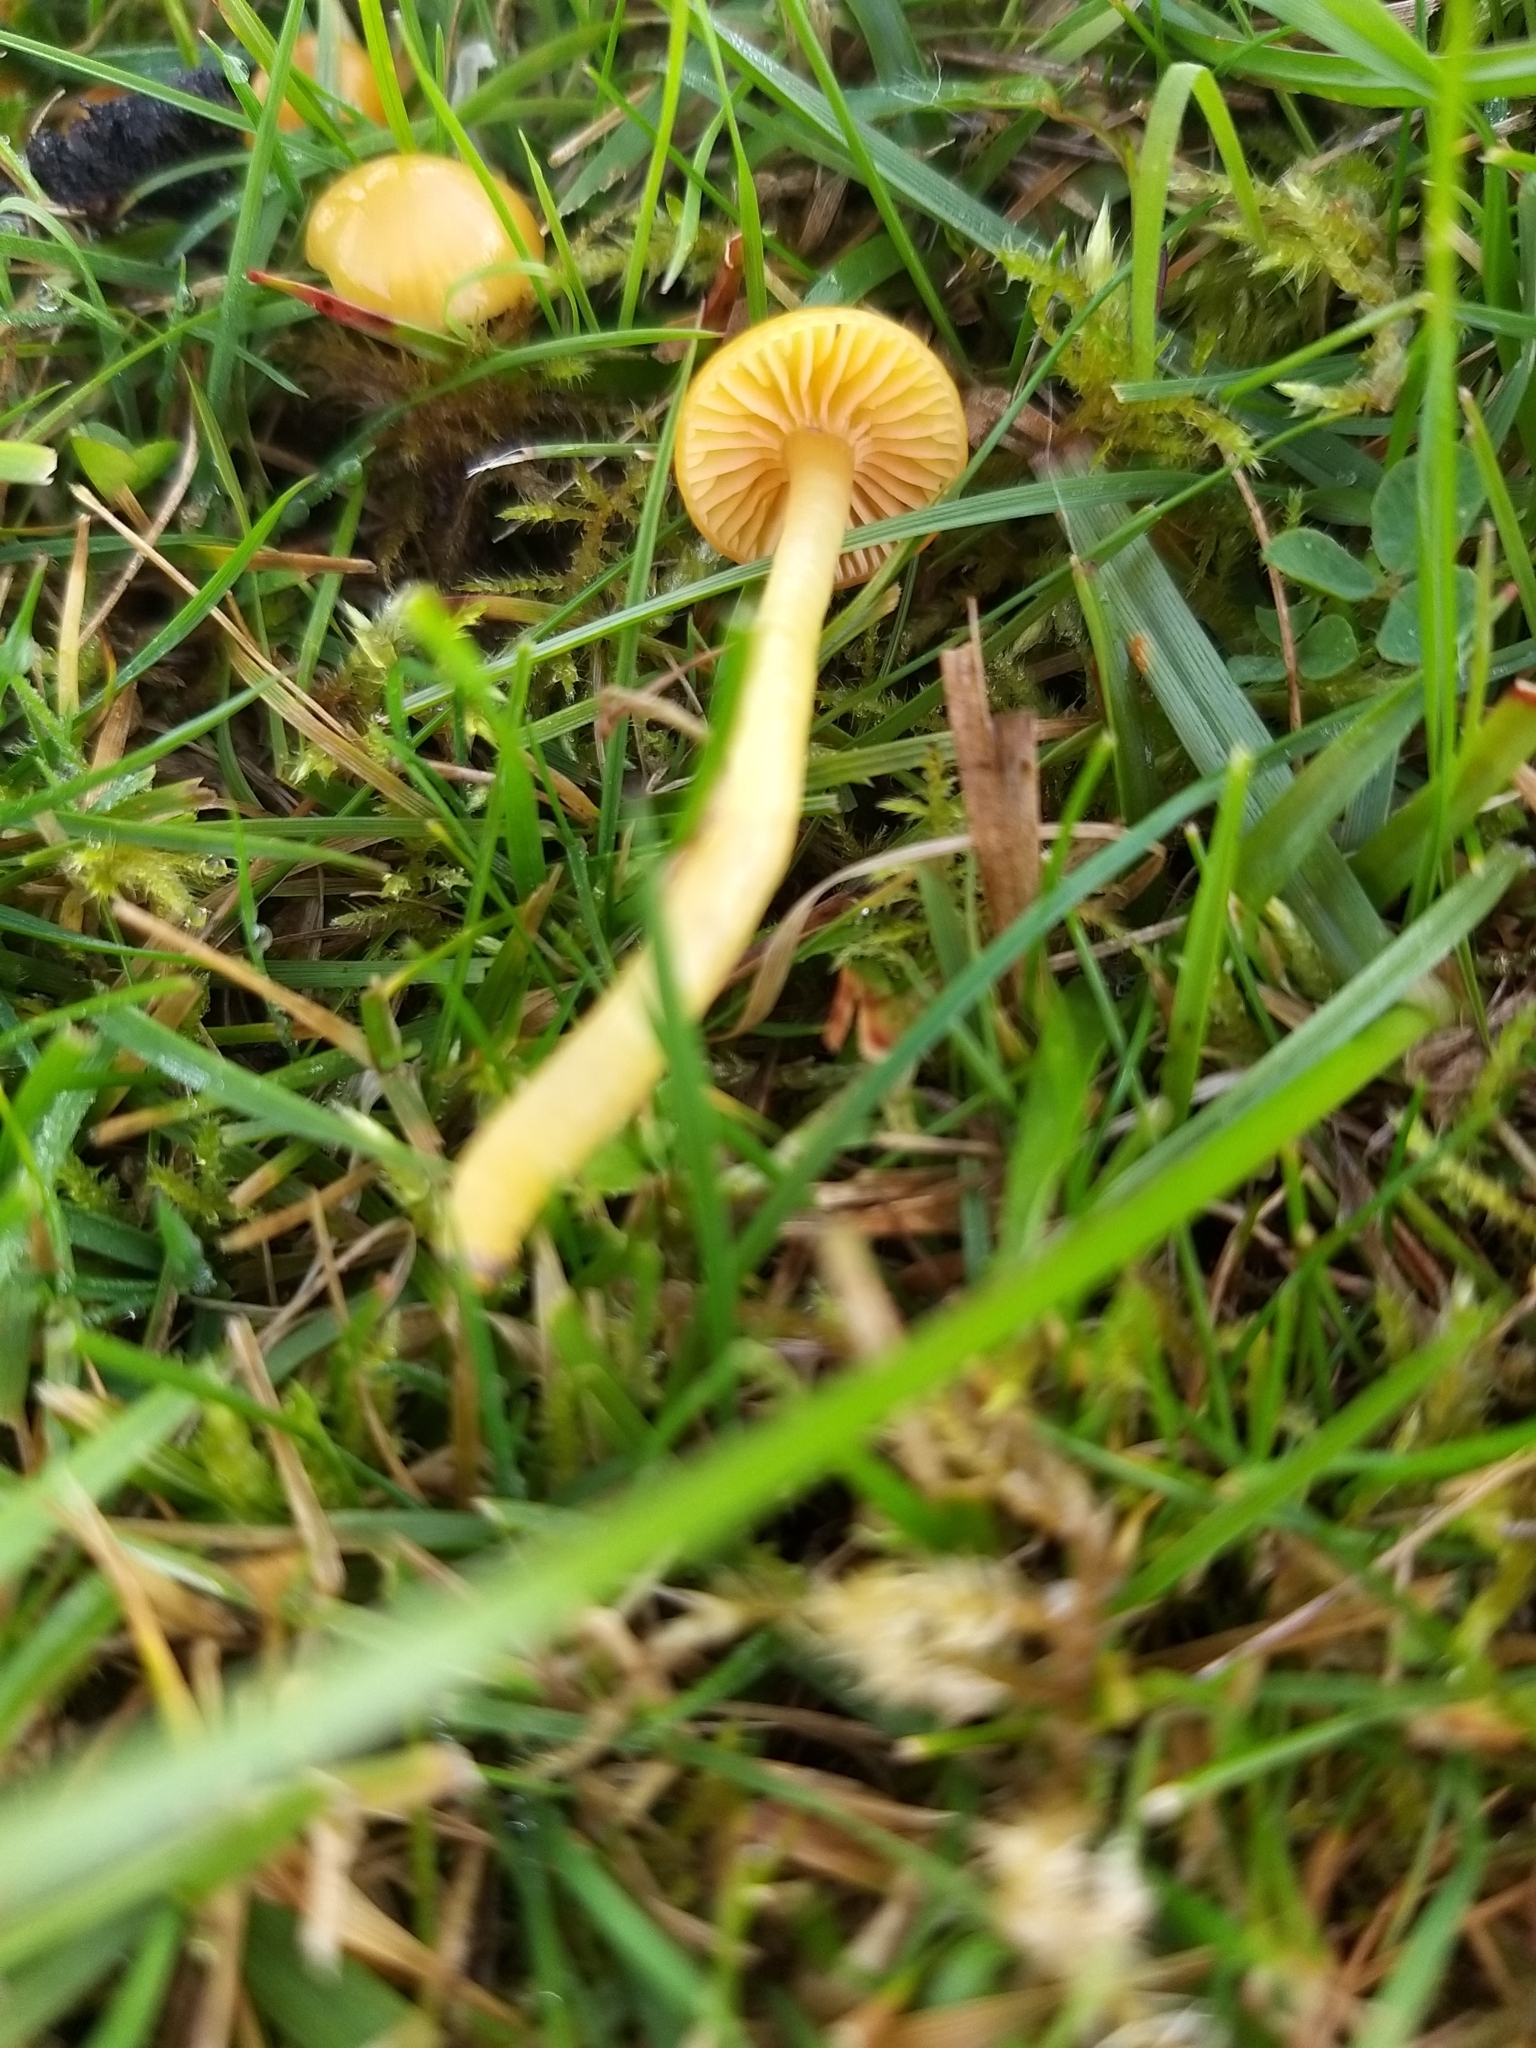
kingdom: Fungi
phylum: Basidiomycota
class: Agaricomycetes
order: Agaricales
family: Hygrophoraceae
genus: Gliophorus
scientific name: Gliophorus psittacinus
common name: Parrot wax-cap
